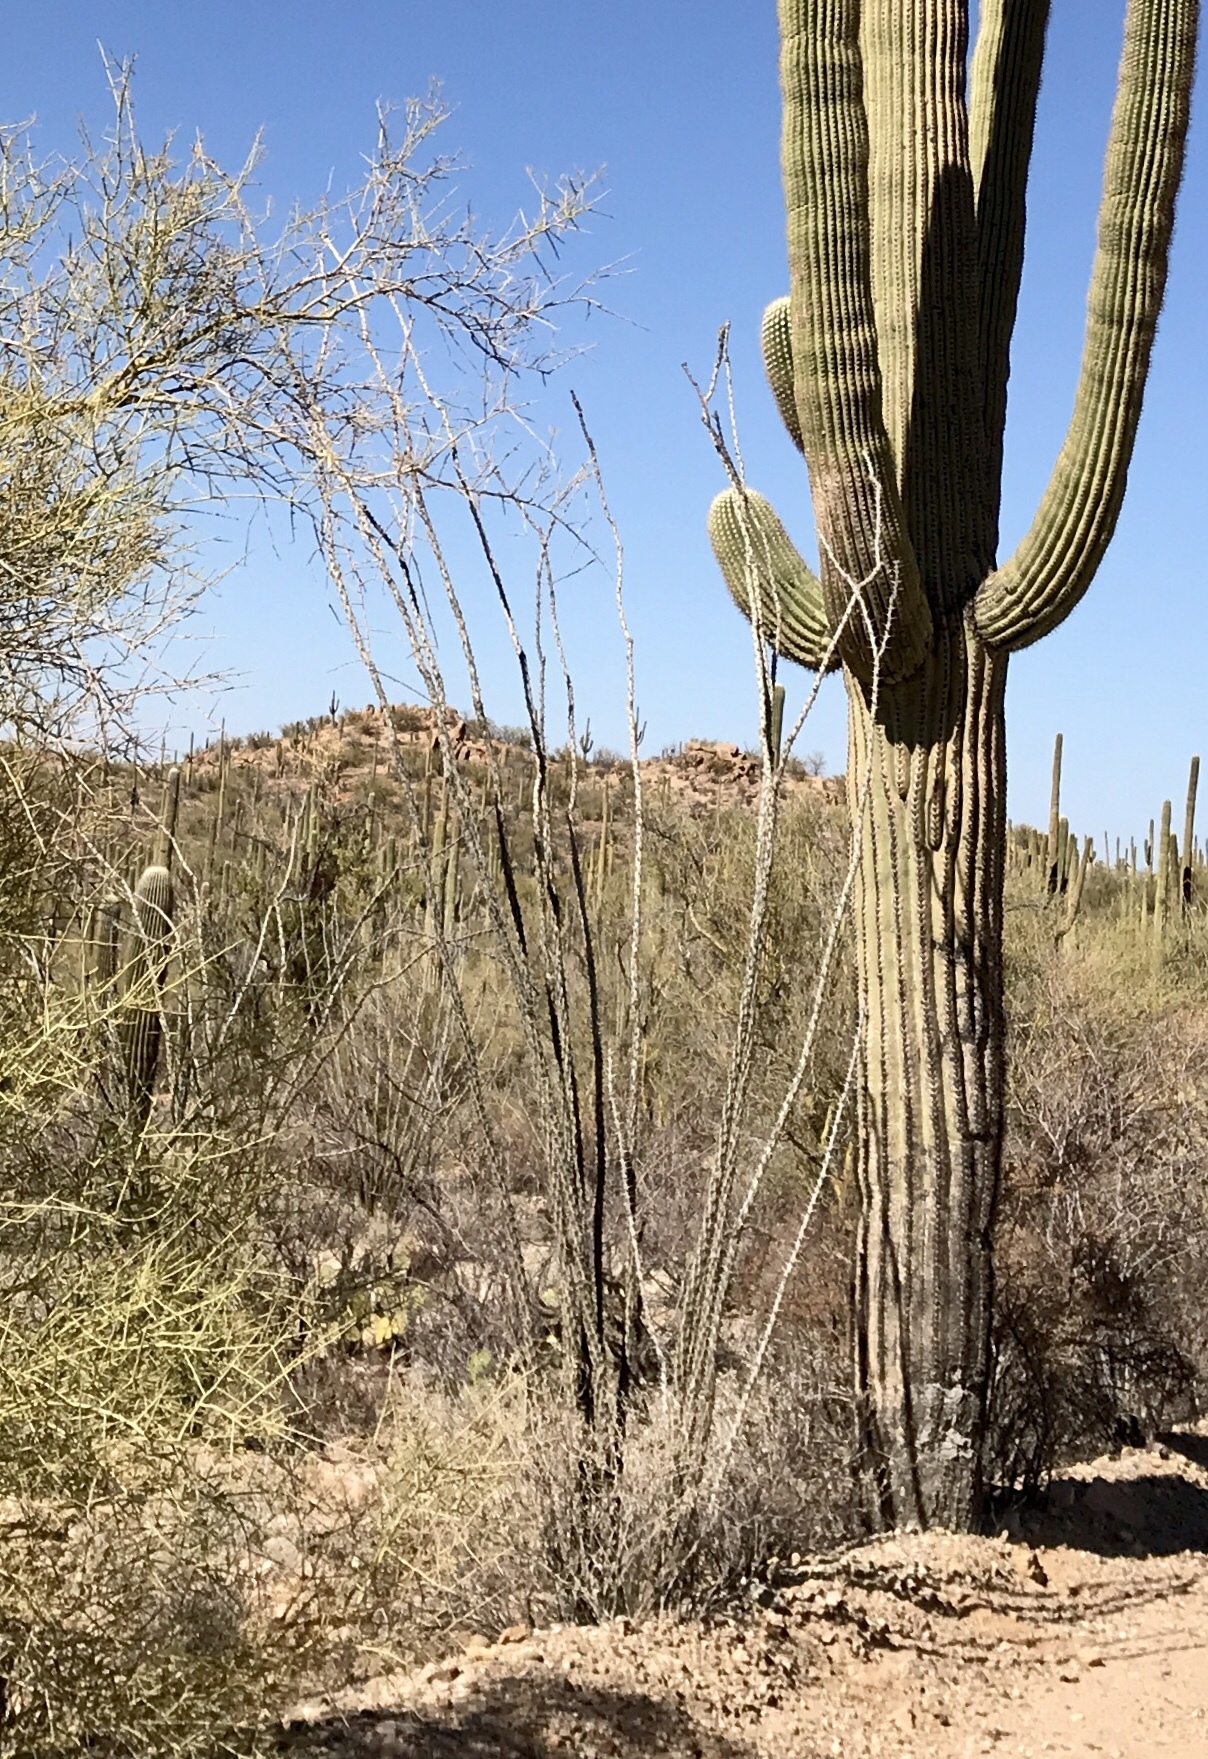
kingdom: Plantae
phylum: Tracheophyta
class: Magnoliopsida
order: Ericales
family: Fouquieriaceae
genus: Fouquieria
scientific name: Fouquieria splendens
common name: Vine-cactus
